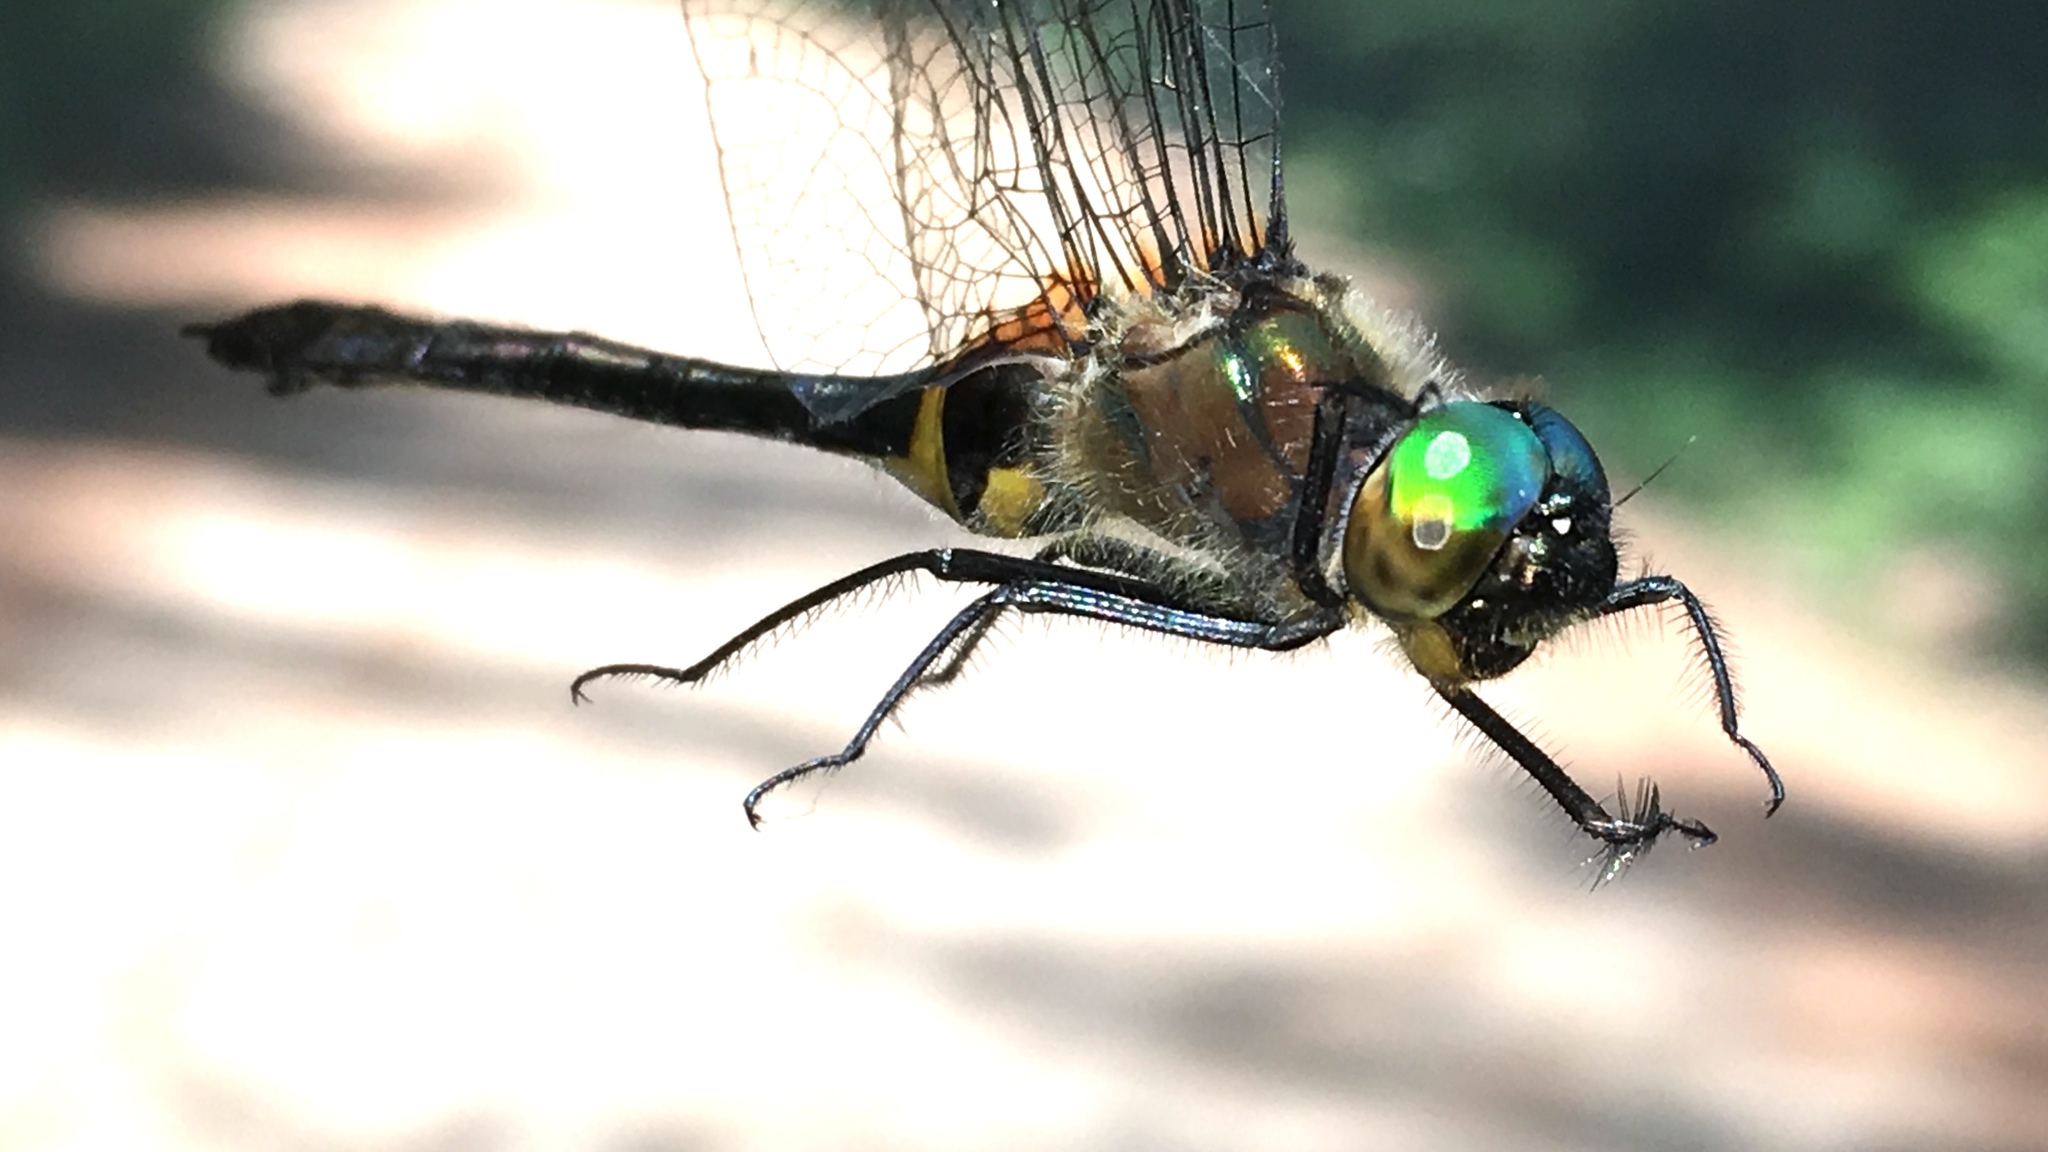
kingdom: Animalia
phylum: Arthropoda
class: Insecta
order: Odonata
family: Corduliidae
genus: Dorocordulia
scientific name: Dorocordulia libera
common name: Racket-tailed emerald
